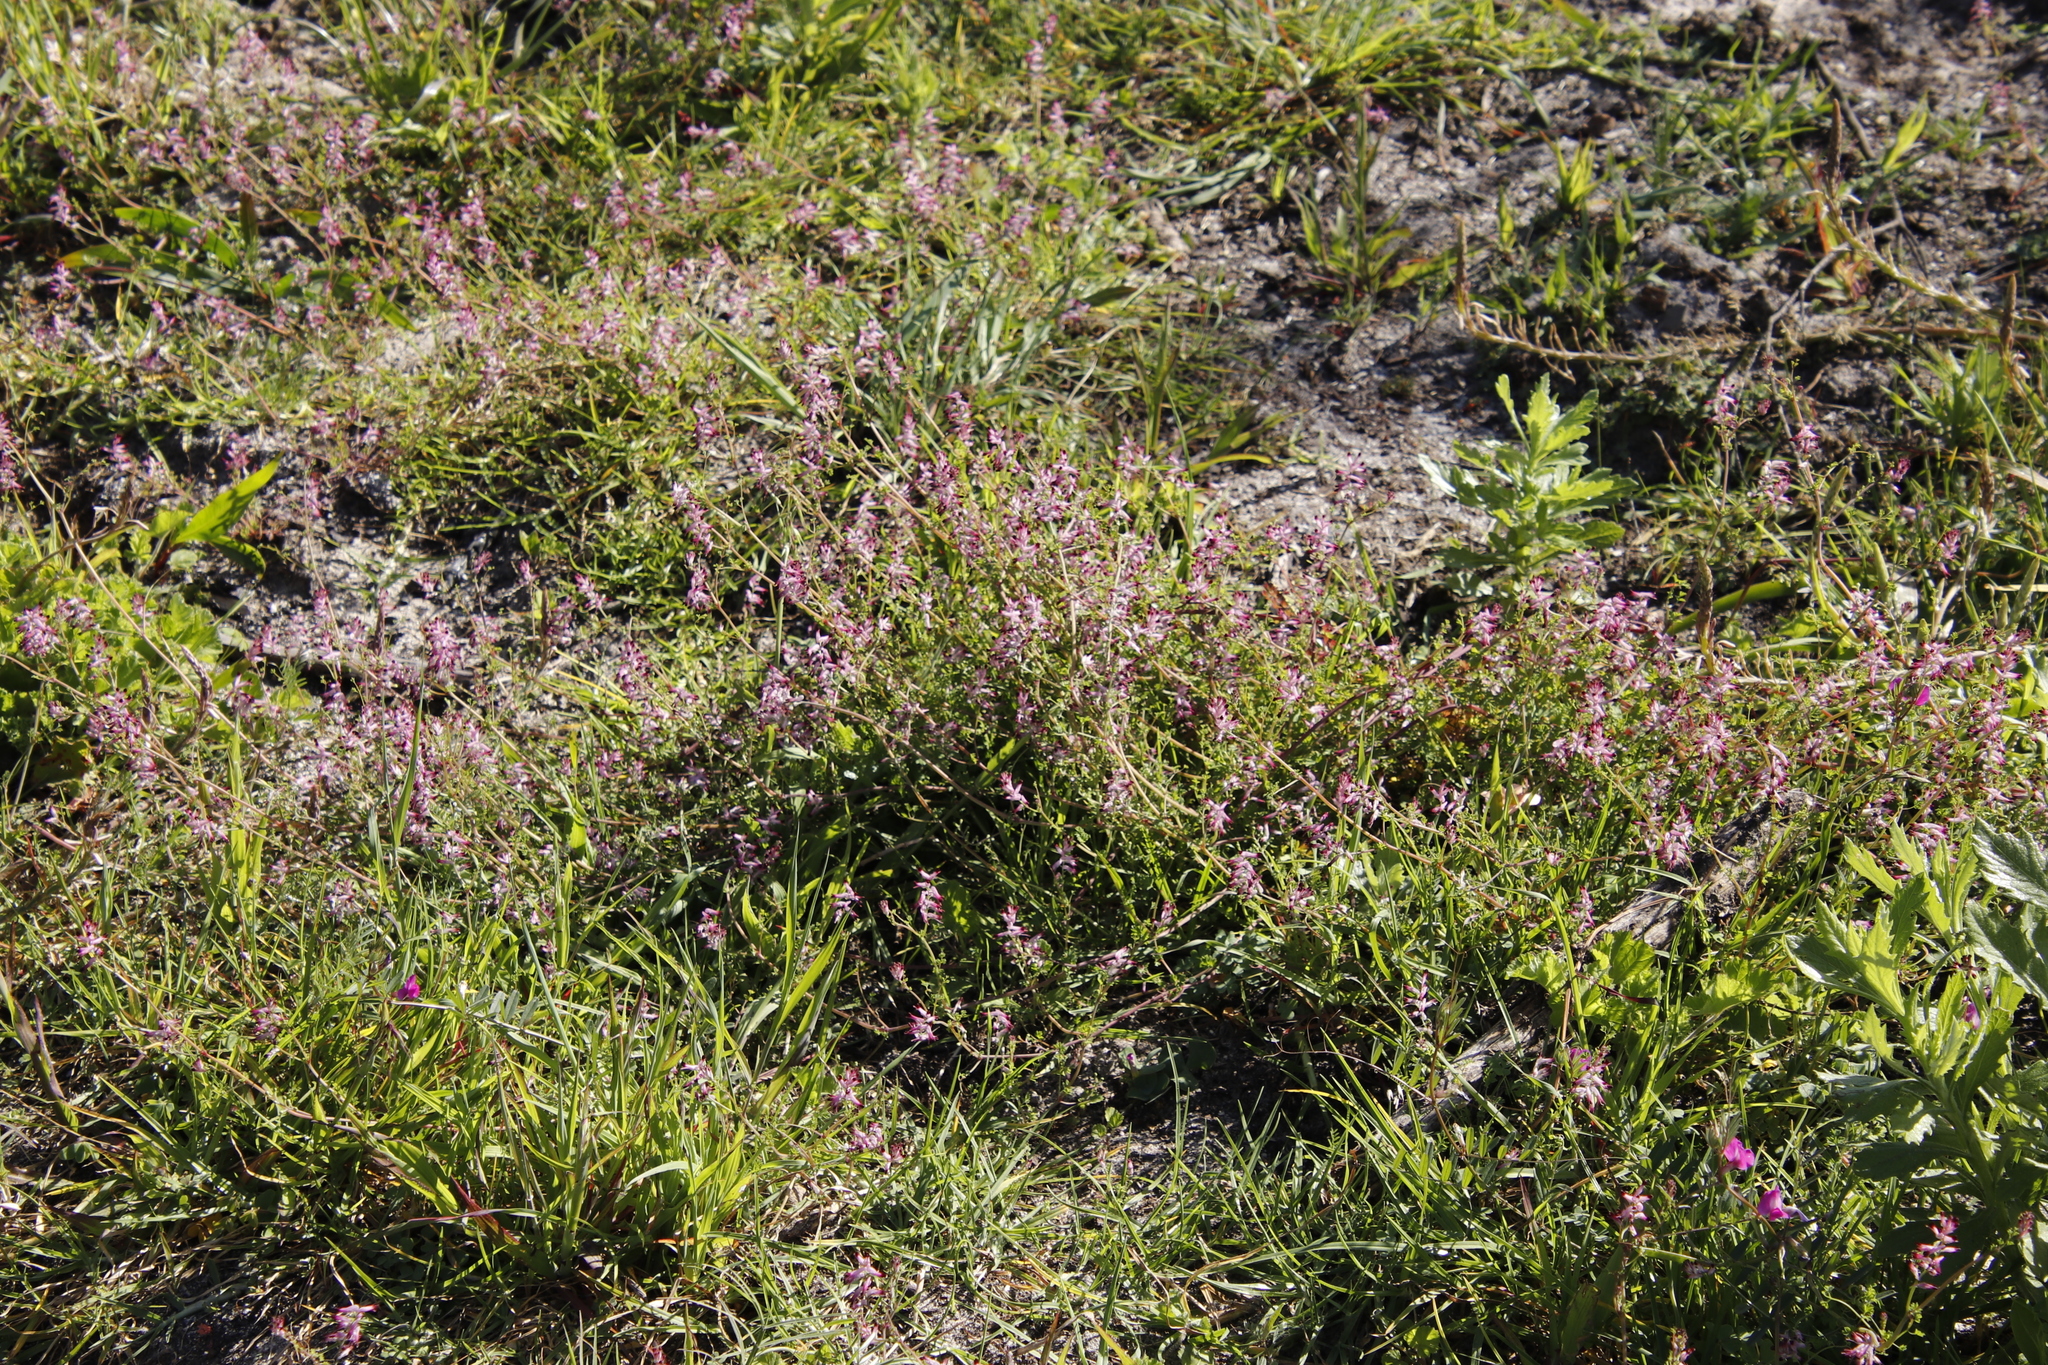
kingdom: Plantae
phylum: Tracheophyta
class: Magnoliopsida
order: Ranunculales
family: Papaveraceae
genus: Fumaria
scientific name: Fumaria muralis
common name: Common ramping-fumitory
